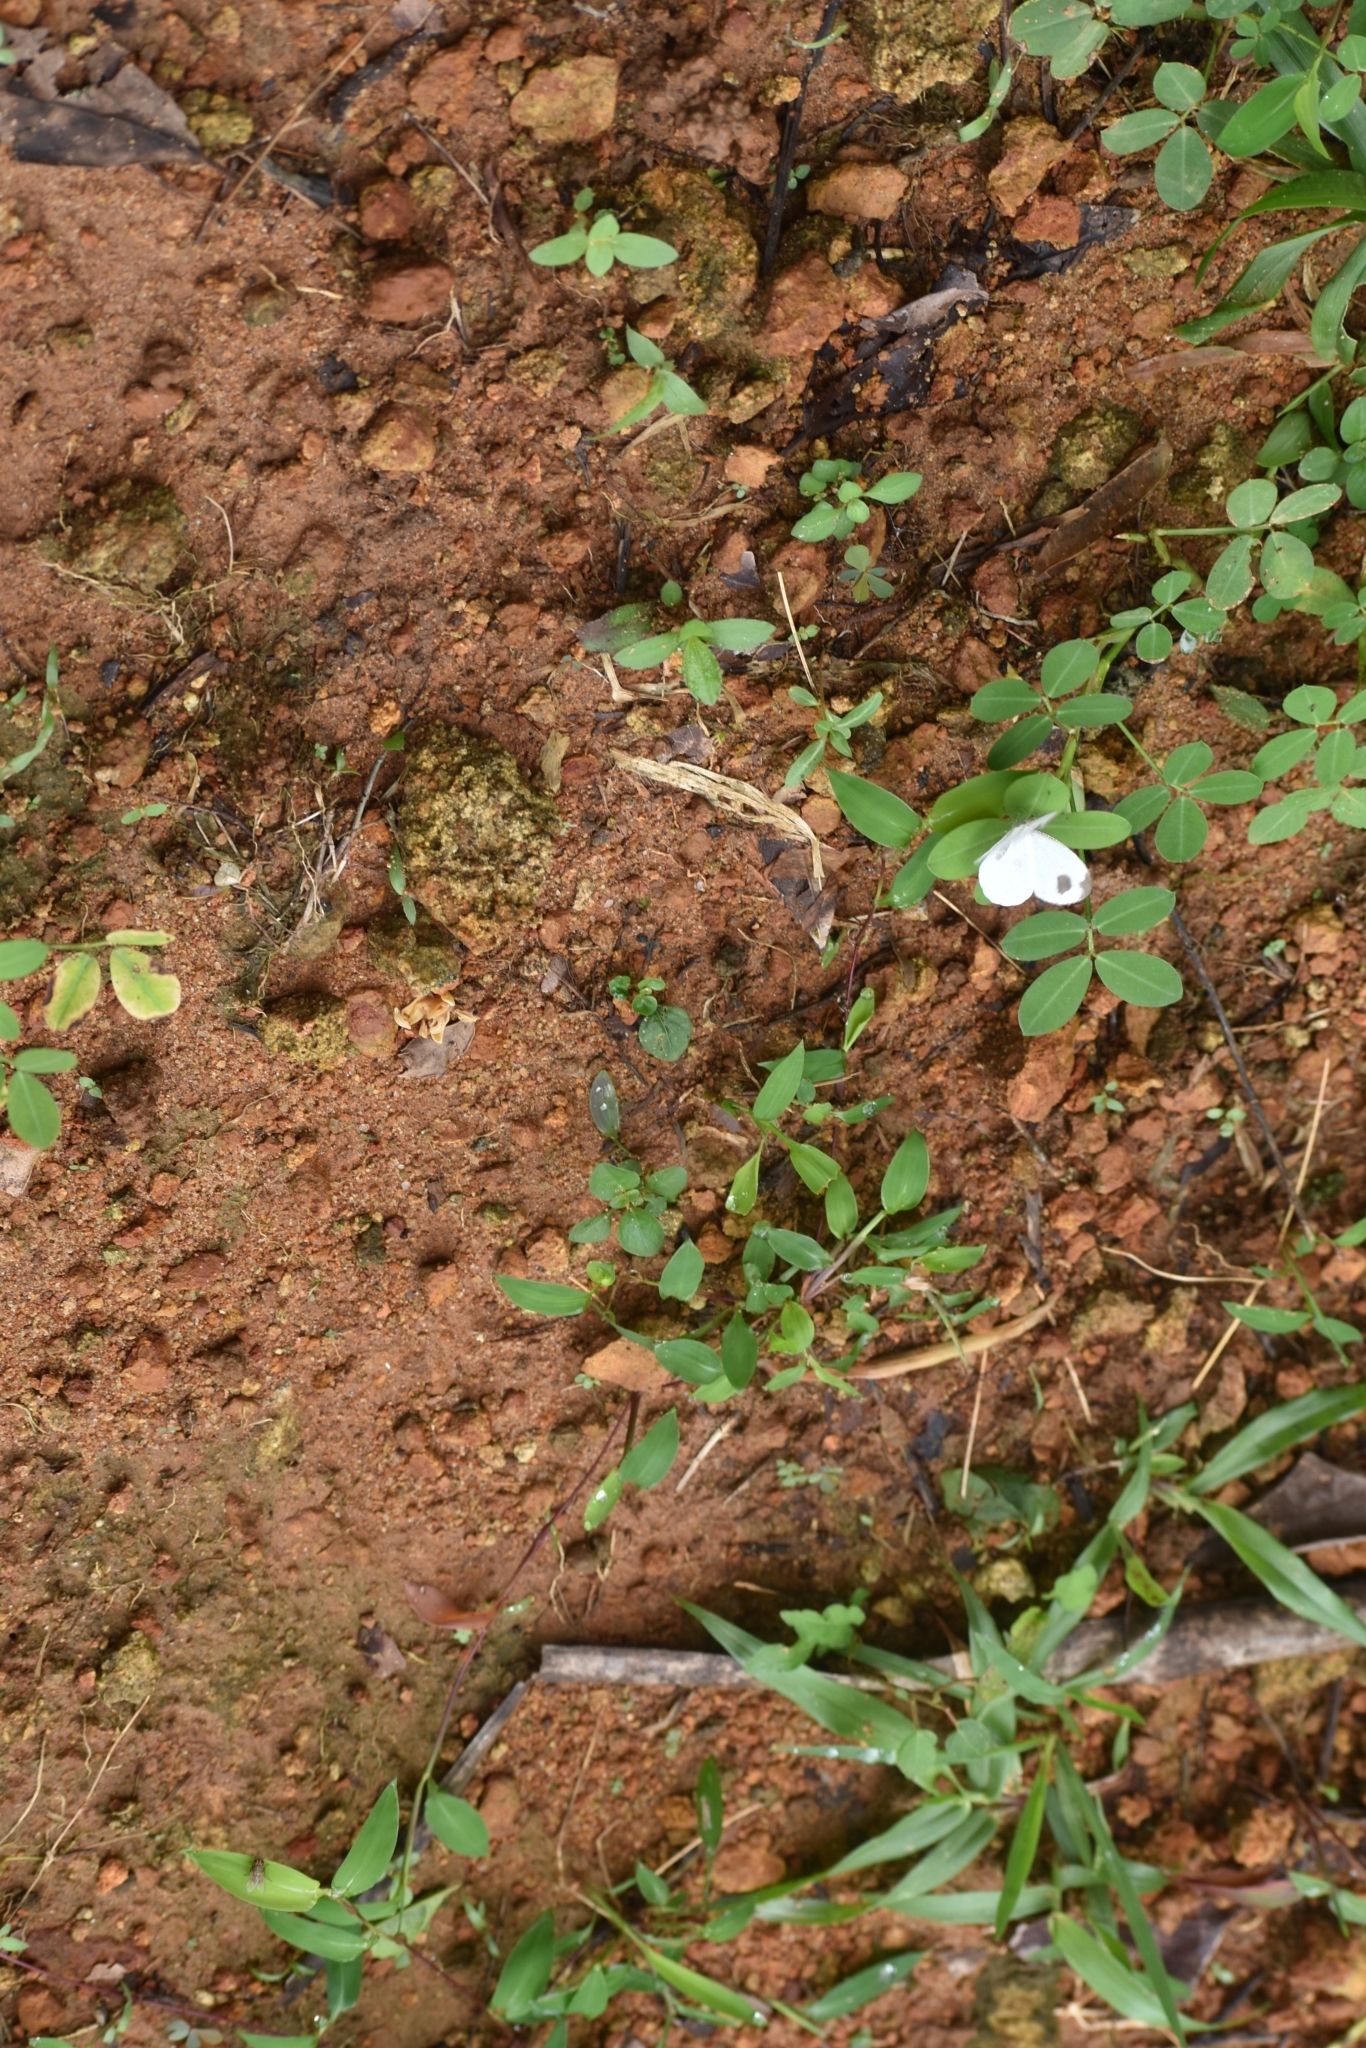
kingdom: Animalia
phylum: Arthropoda
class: Insecta
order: Lepidoptera
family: Pieridae
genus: Leptosia
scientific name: Leptosia nina
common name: Psyche
